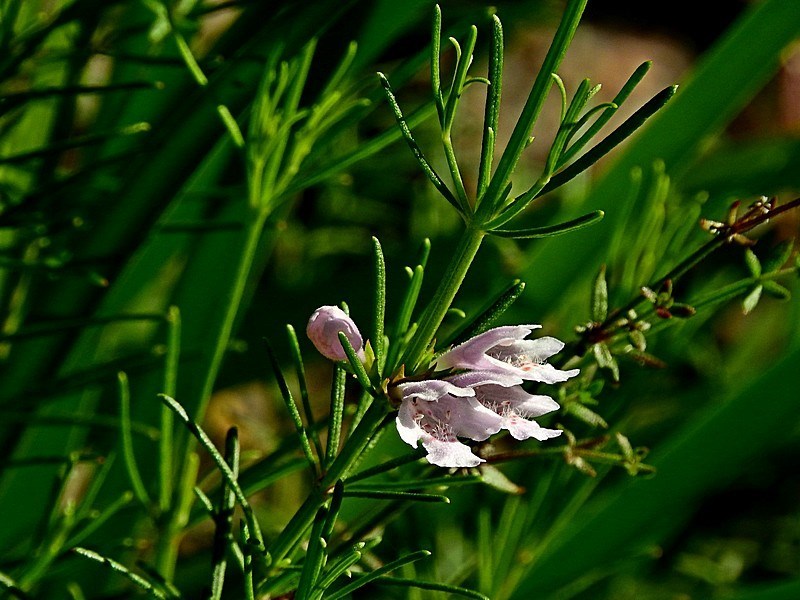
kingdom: Plantae
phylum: Tracheophyta
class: Magnoliopsida
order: Lamiales
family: Lamiaceae
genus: Westringia
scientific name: Westringia eremicola
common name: Slender western-rosemary
